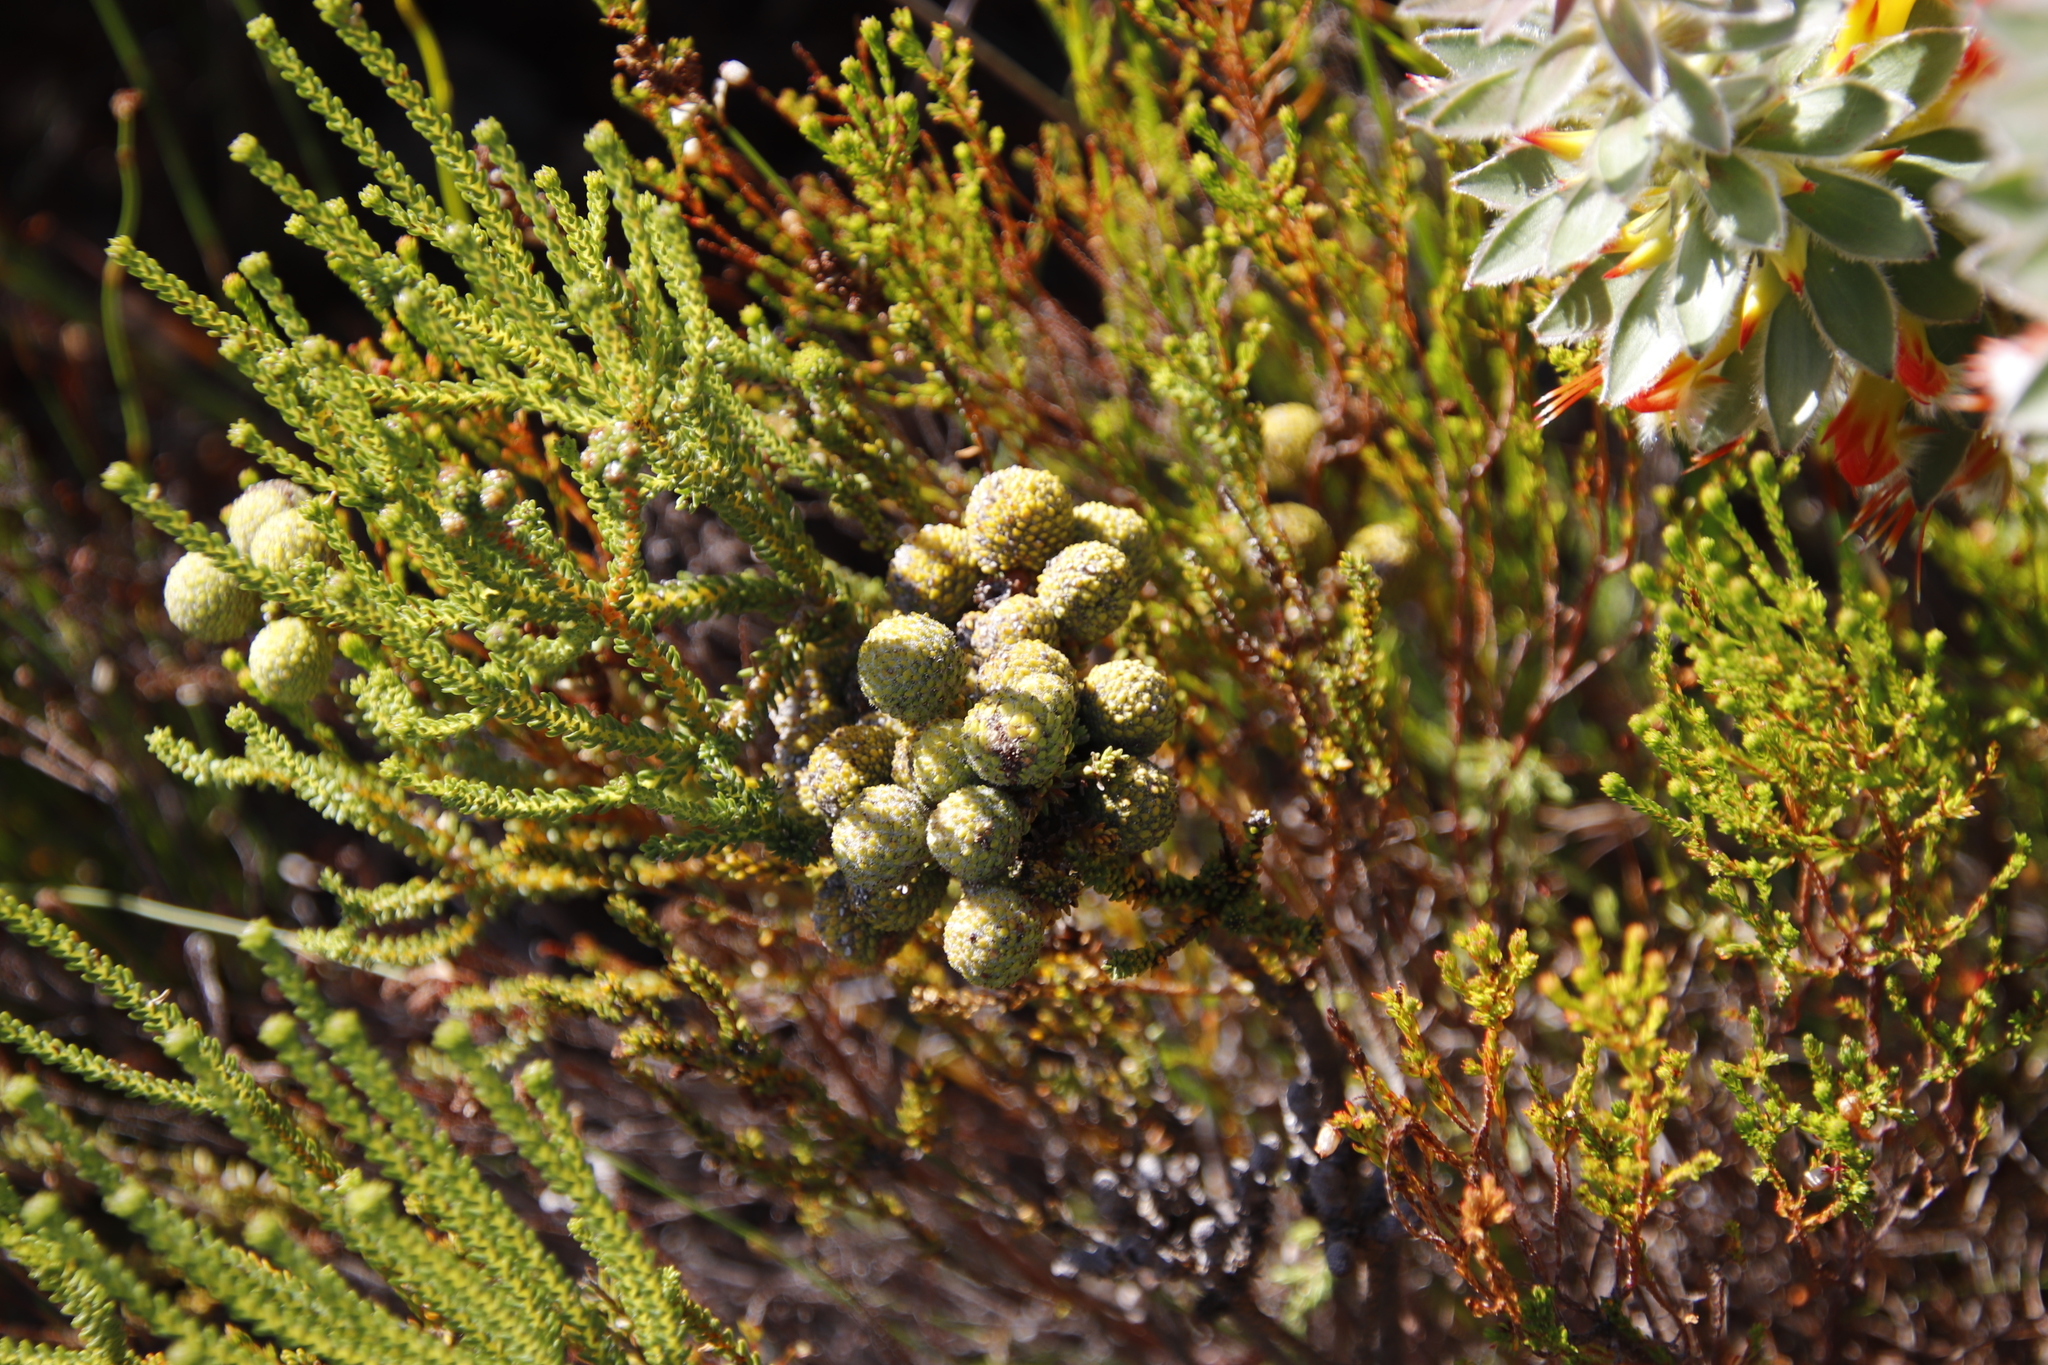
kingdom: Plantae
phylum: Tracheophyta
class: Magnoliopsida
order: Bruniales
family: Bruniaceae
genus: Berzelia
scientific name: Berzelia abrotanoides
